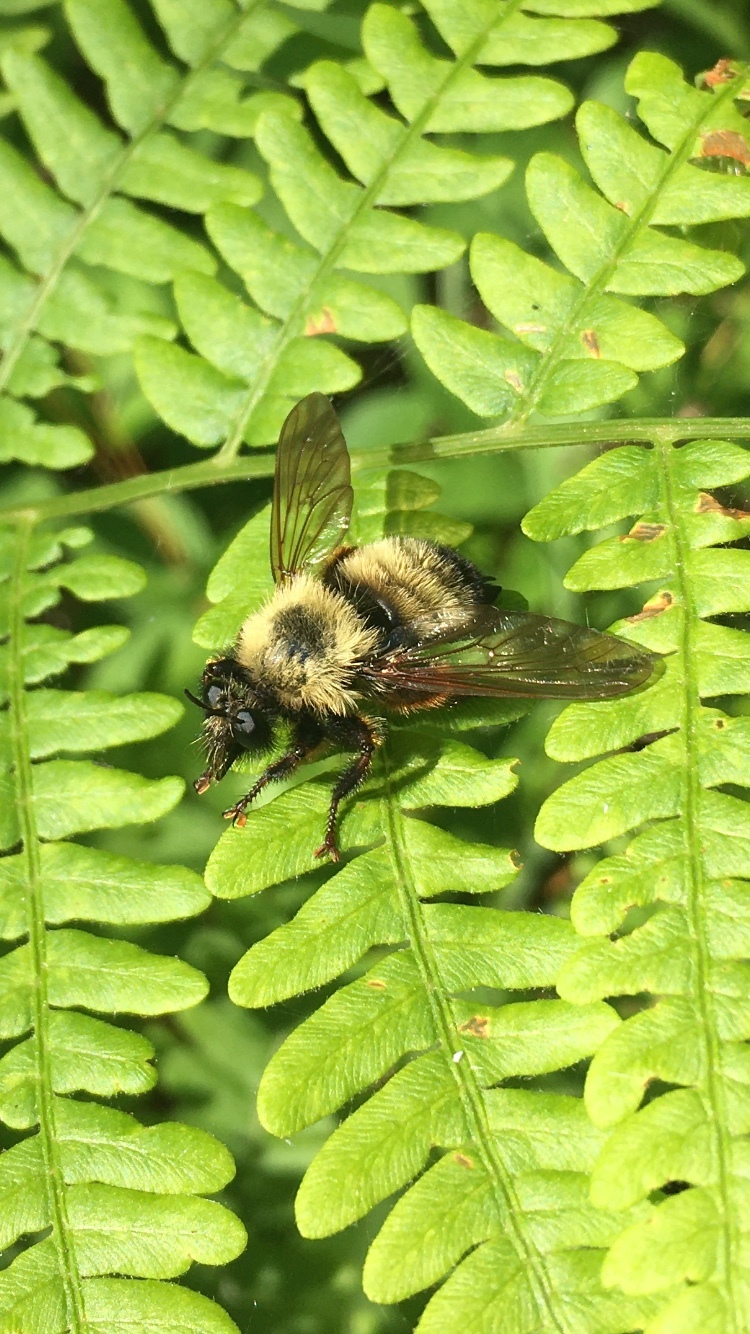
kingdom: Animalia
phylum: Arthropoda
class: Insecta
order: Diptera
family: Asilidae
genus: Laphria
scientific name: Laphria thoracica
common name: Bumble bee mimic robber fly
